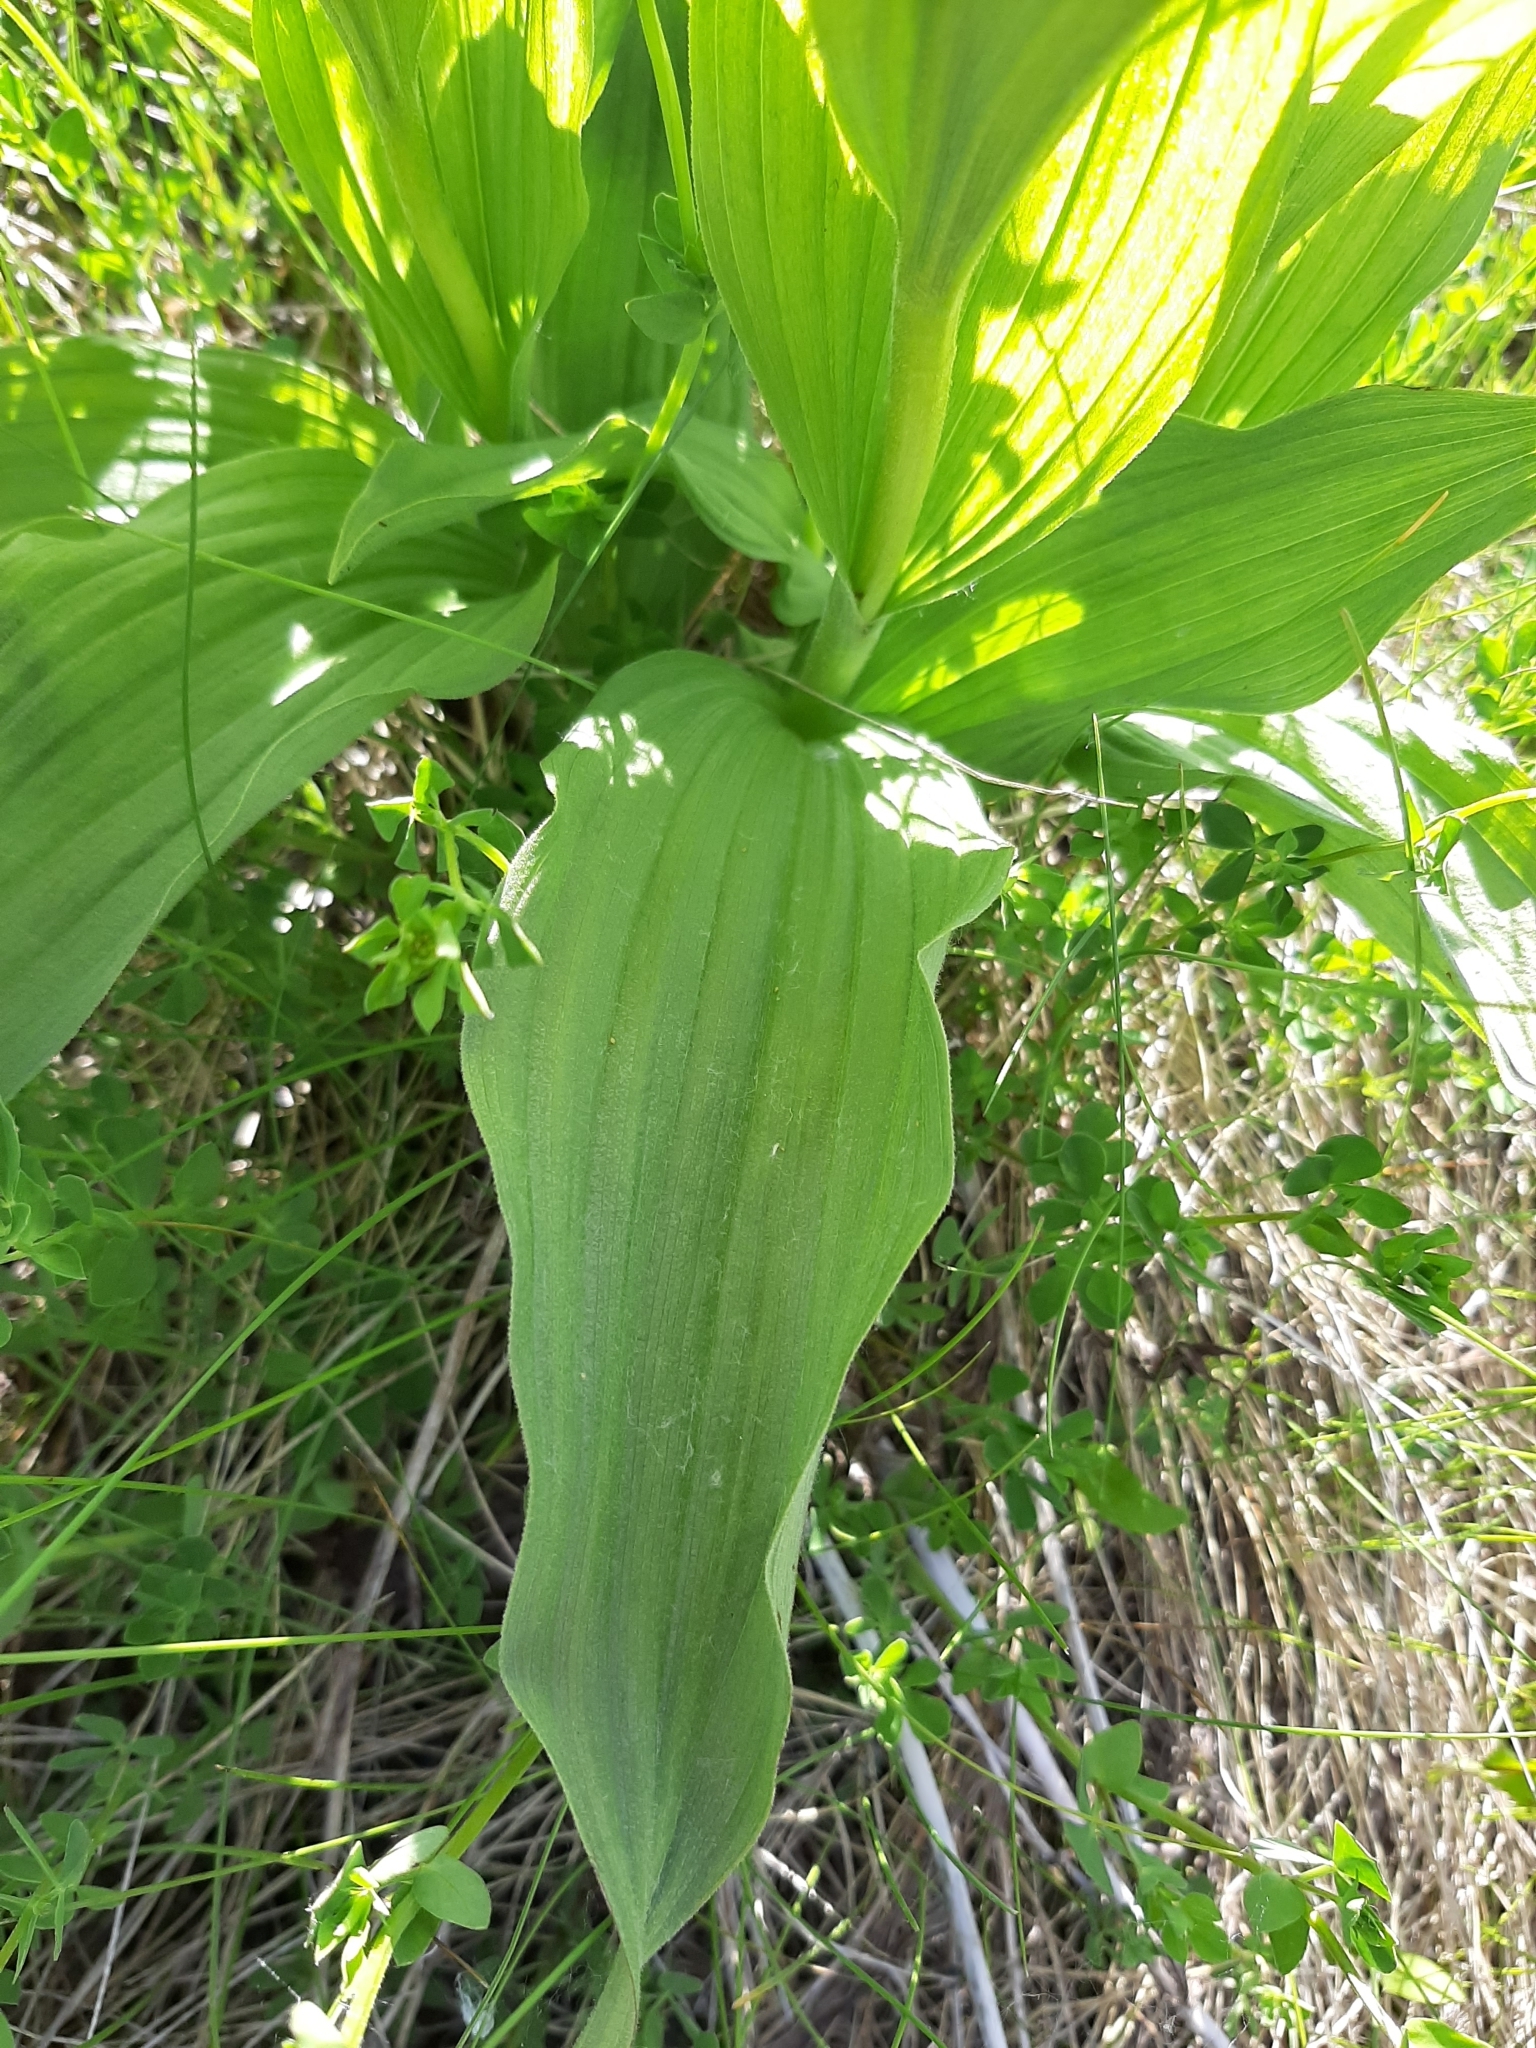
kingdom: Plantae
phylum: Tracheophyta
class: Liliopsida
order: Asparagales
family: Orchidaceae
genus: Cypripedium
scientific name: Cypripedium parviflorum
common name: American yellow lady's-slipper
